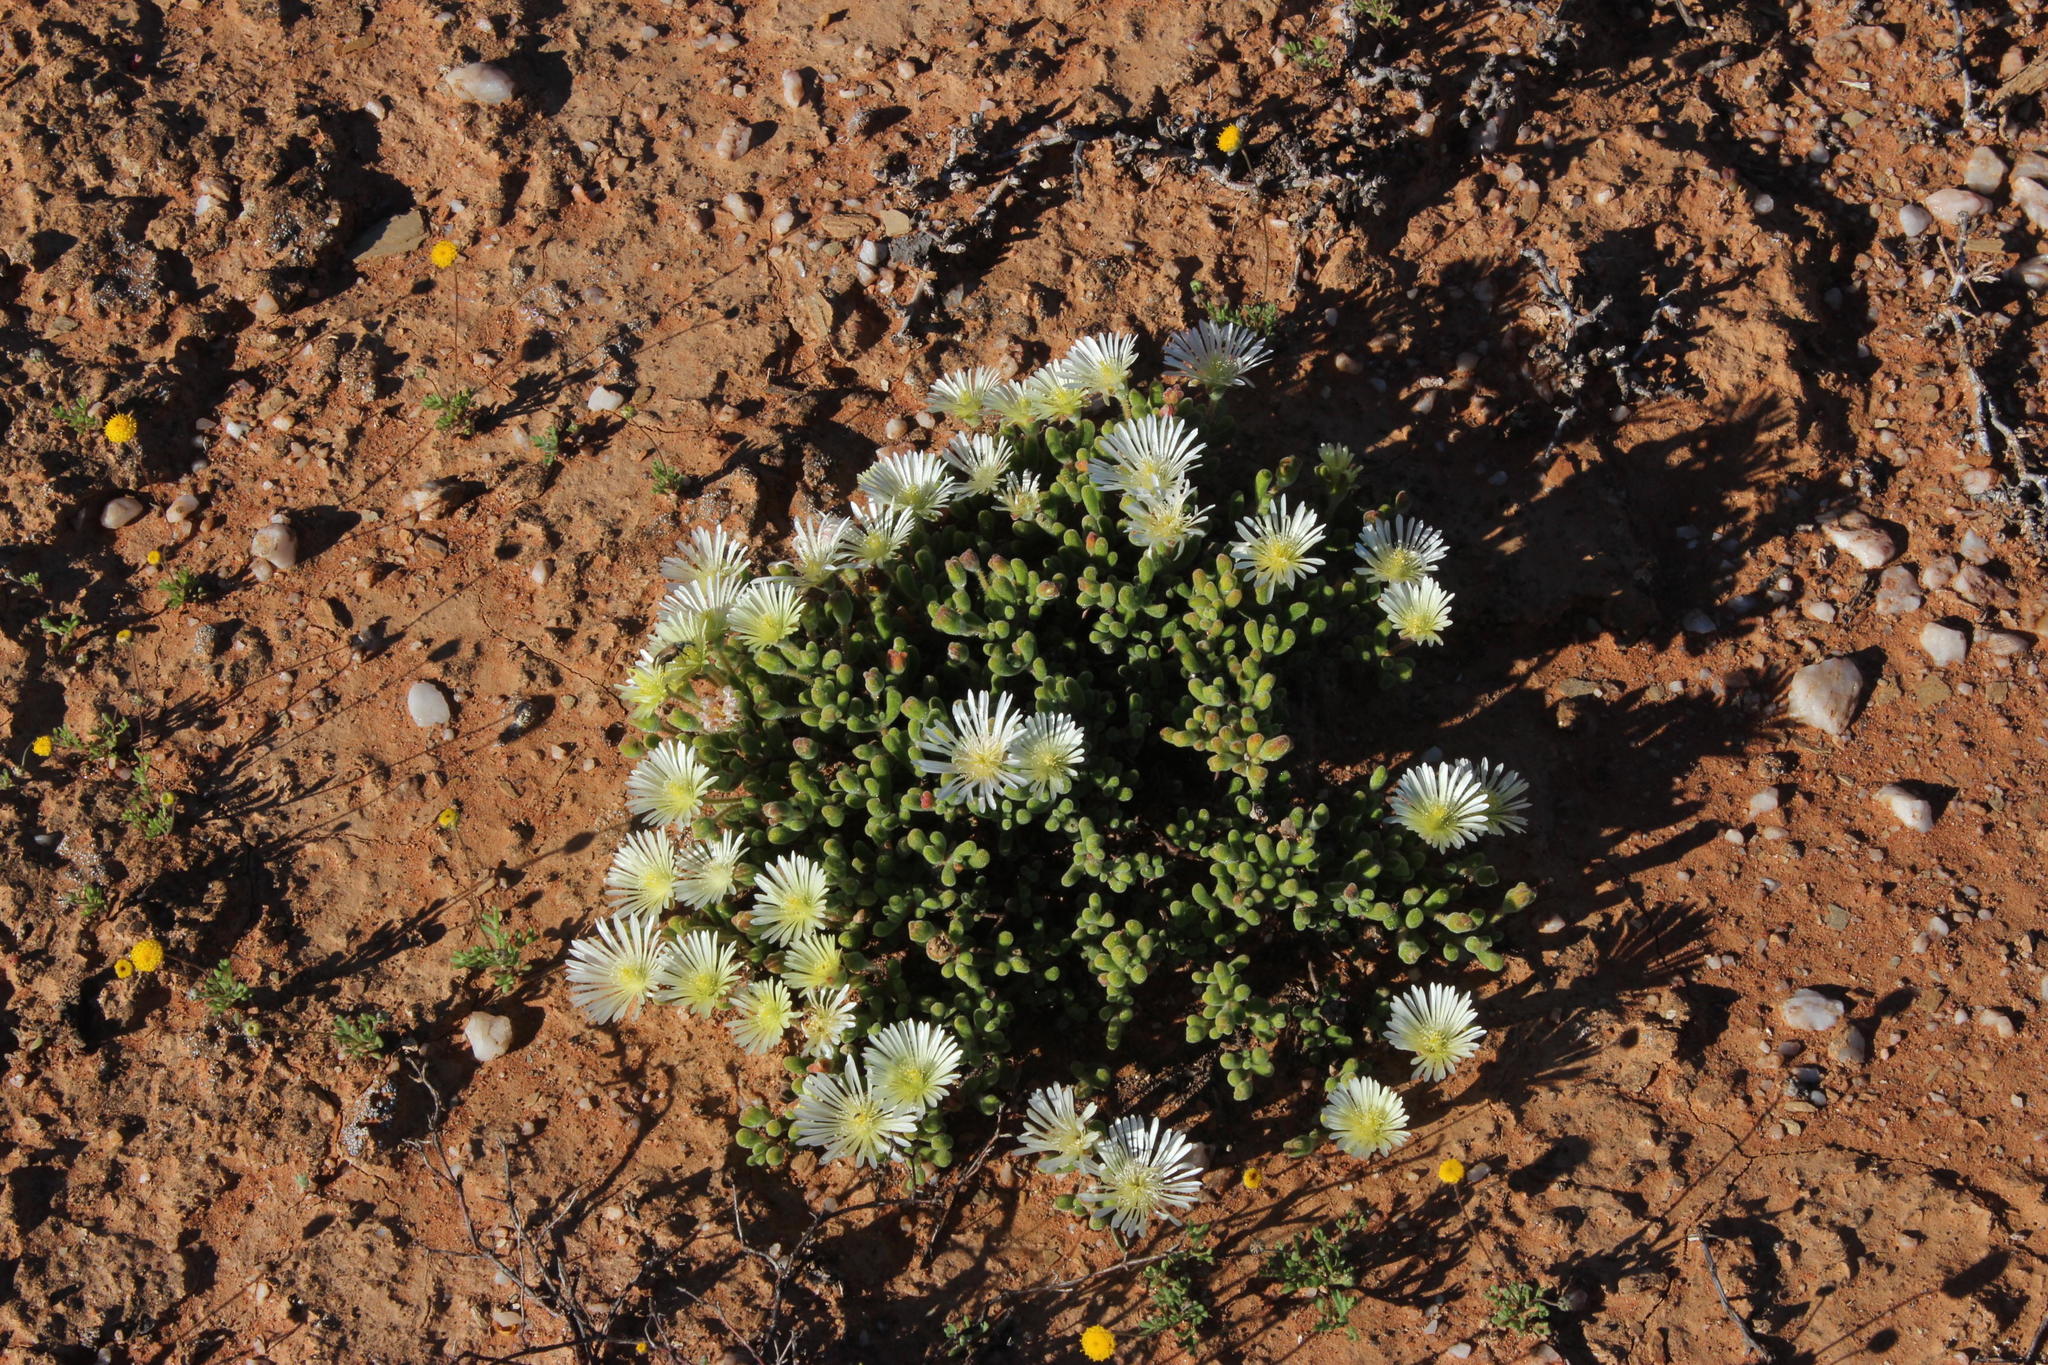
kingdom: Plantae
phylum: Tracheophyta
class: Magnoliopsida
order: Caryophyllales
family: Aizoaceae
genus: Drosanthemum
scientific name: Drosanthemum schoenlandianum
